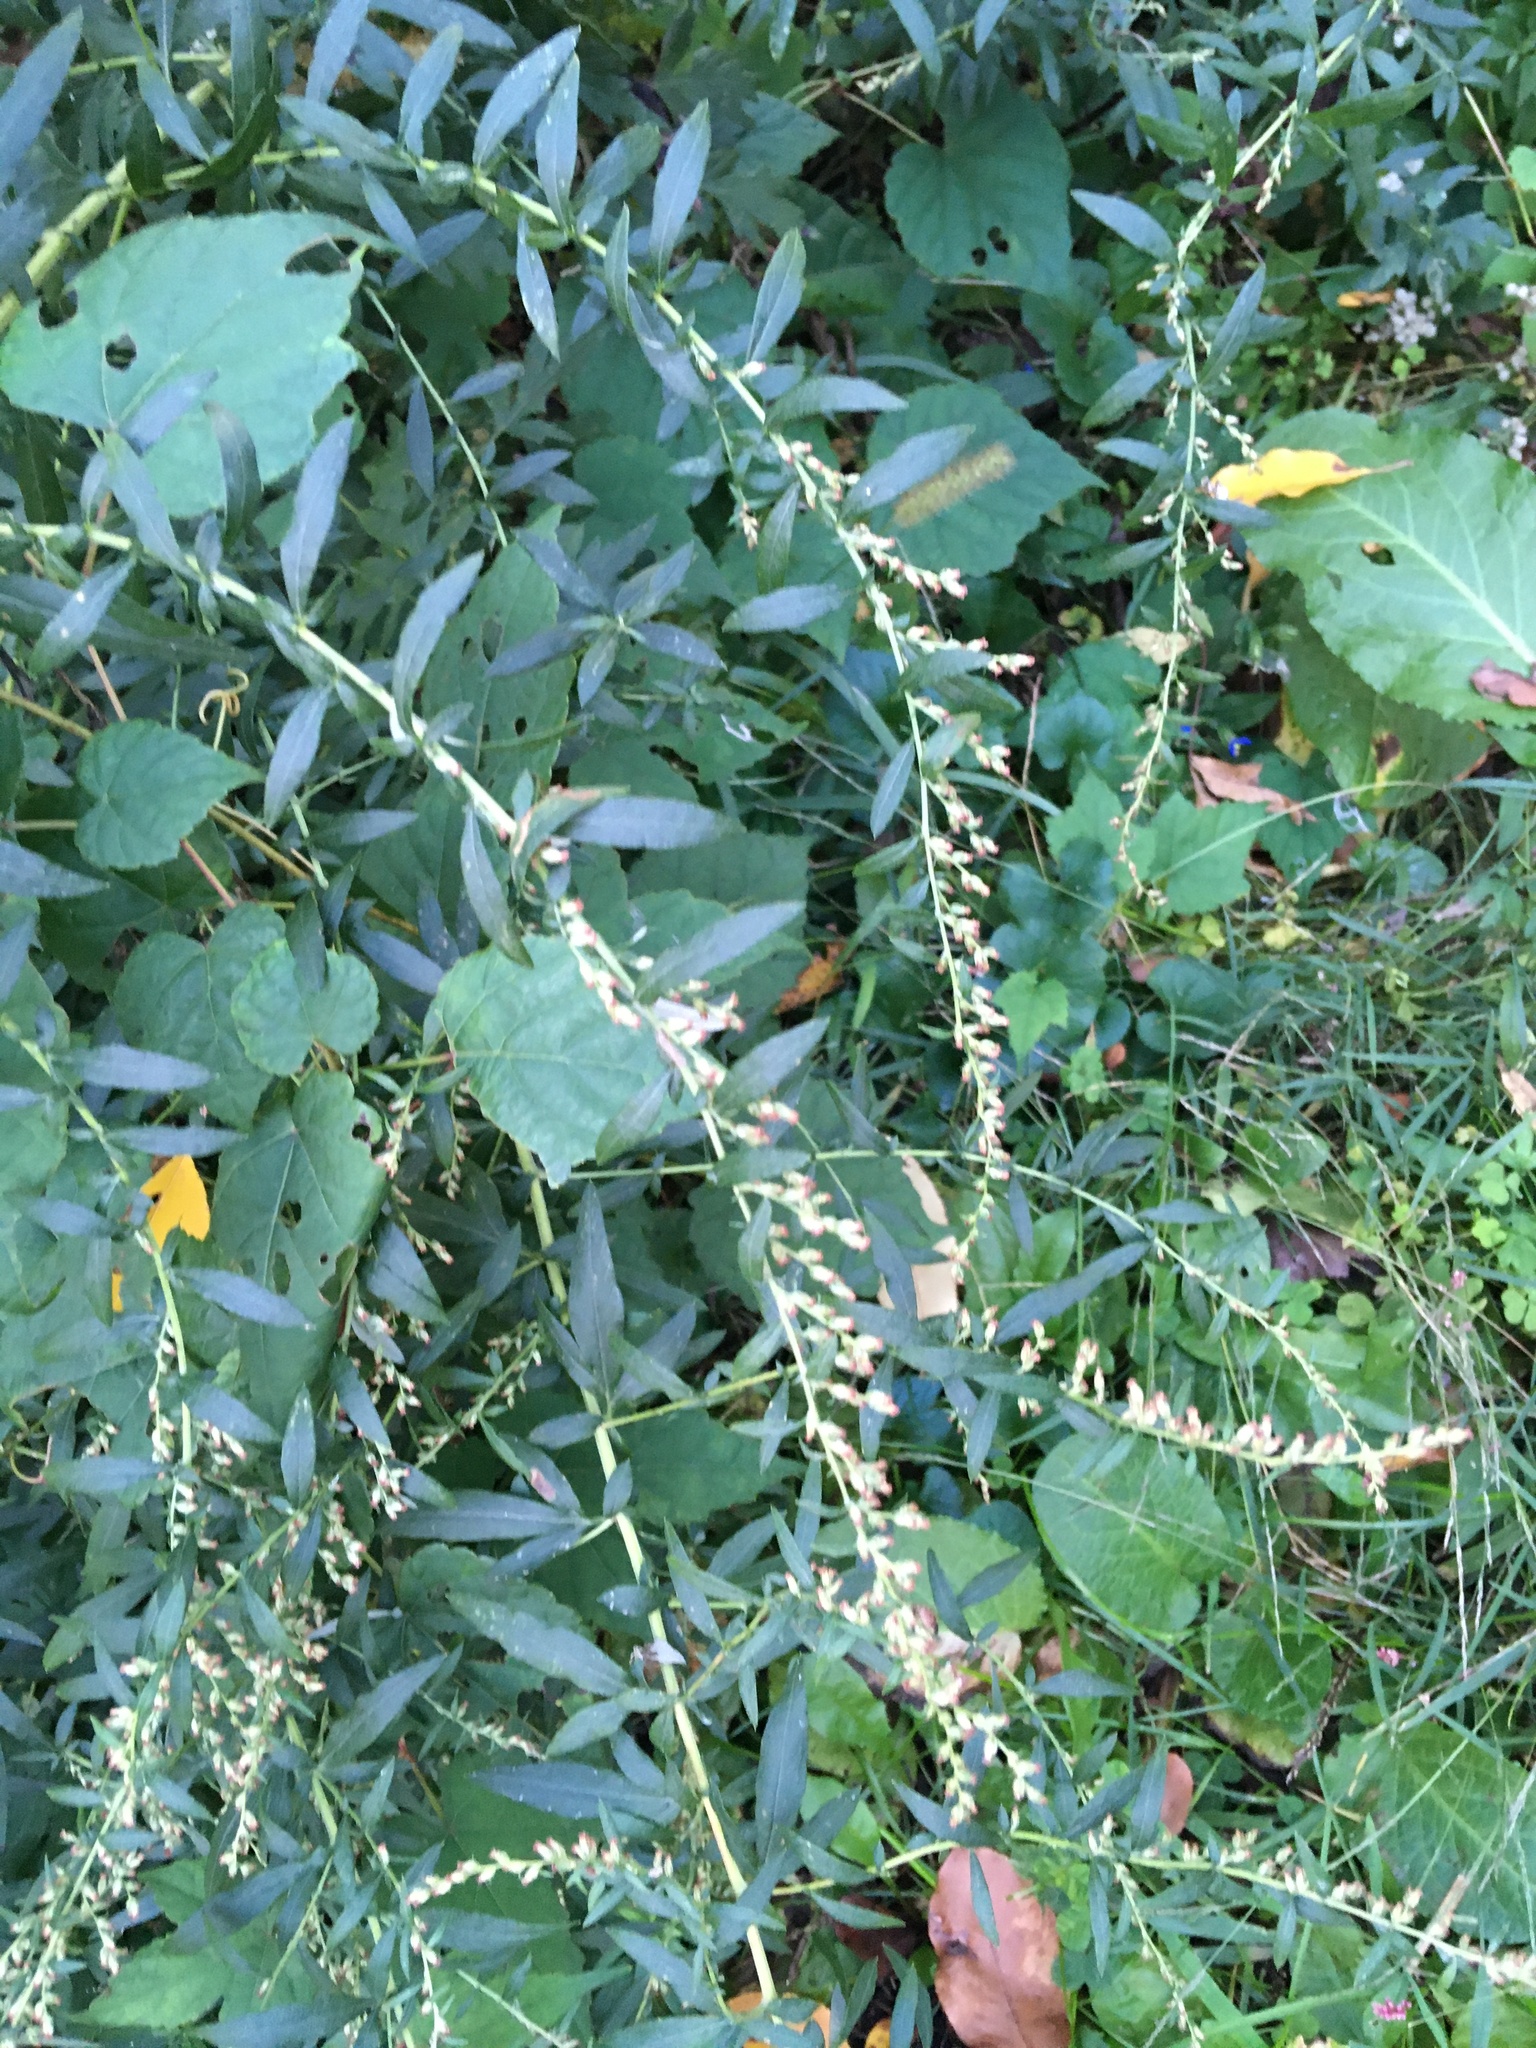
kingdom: Plantae
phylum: Tracheophyta
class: Magnoliopsida
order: Asterales
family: Asteraceae
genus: Artemisia
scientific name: Artemisia vulgaris
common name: Mugwort
